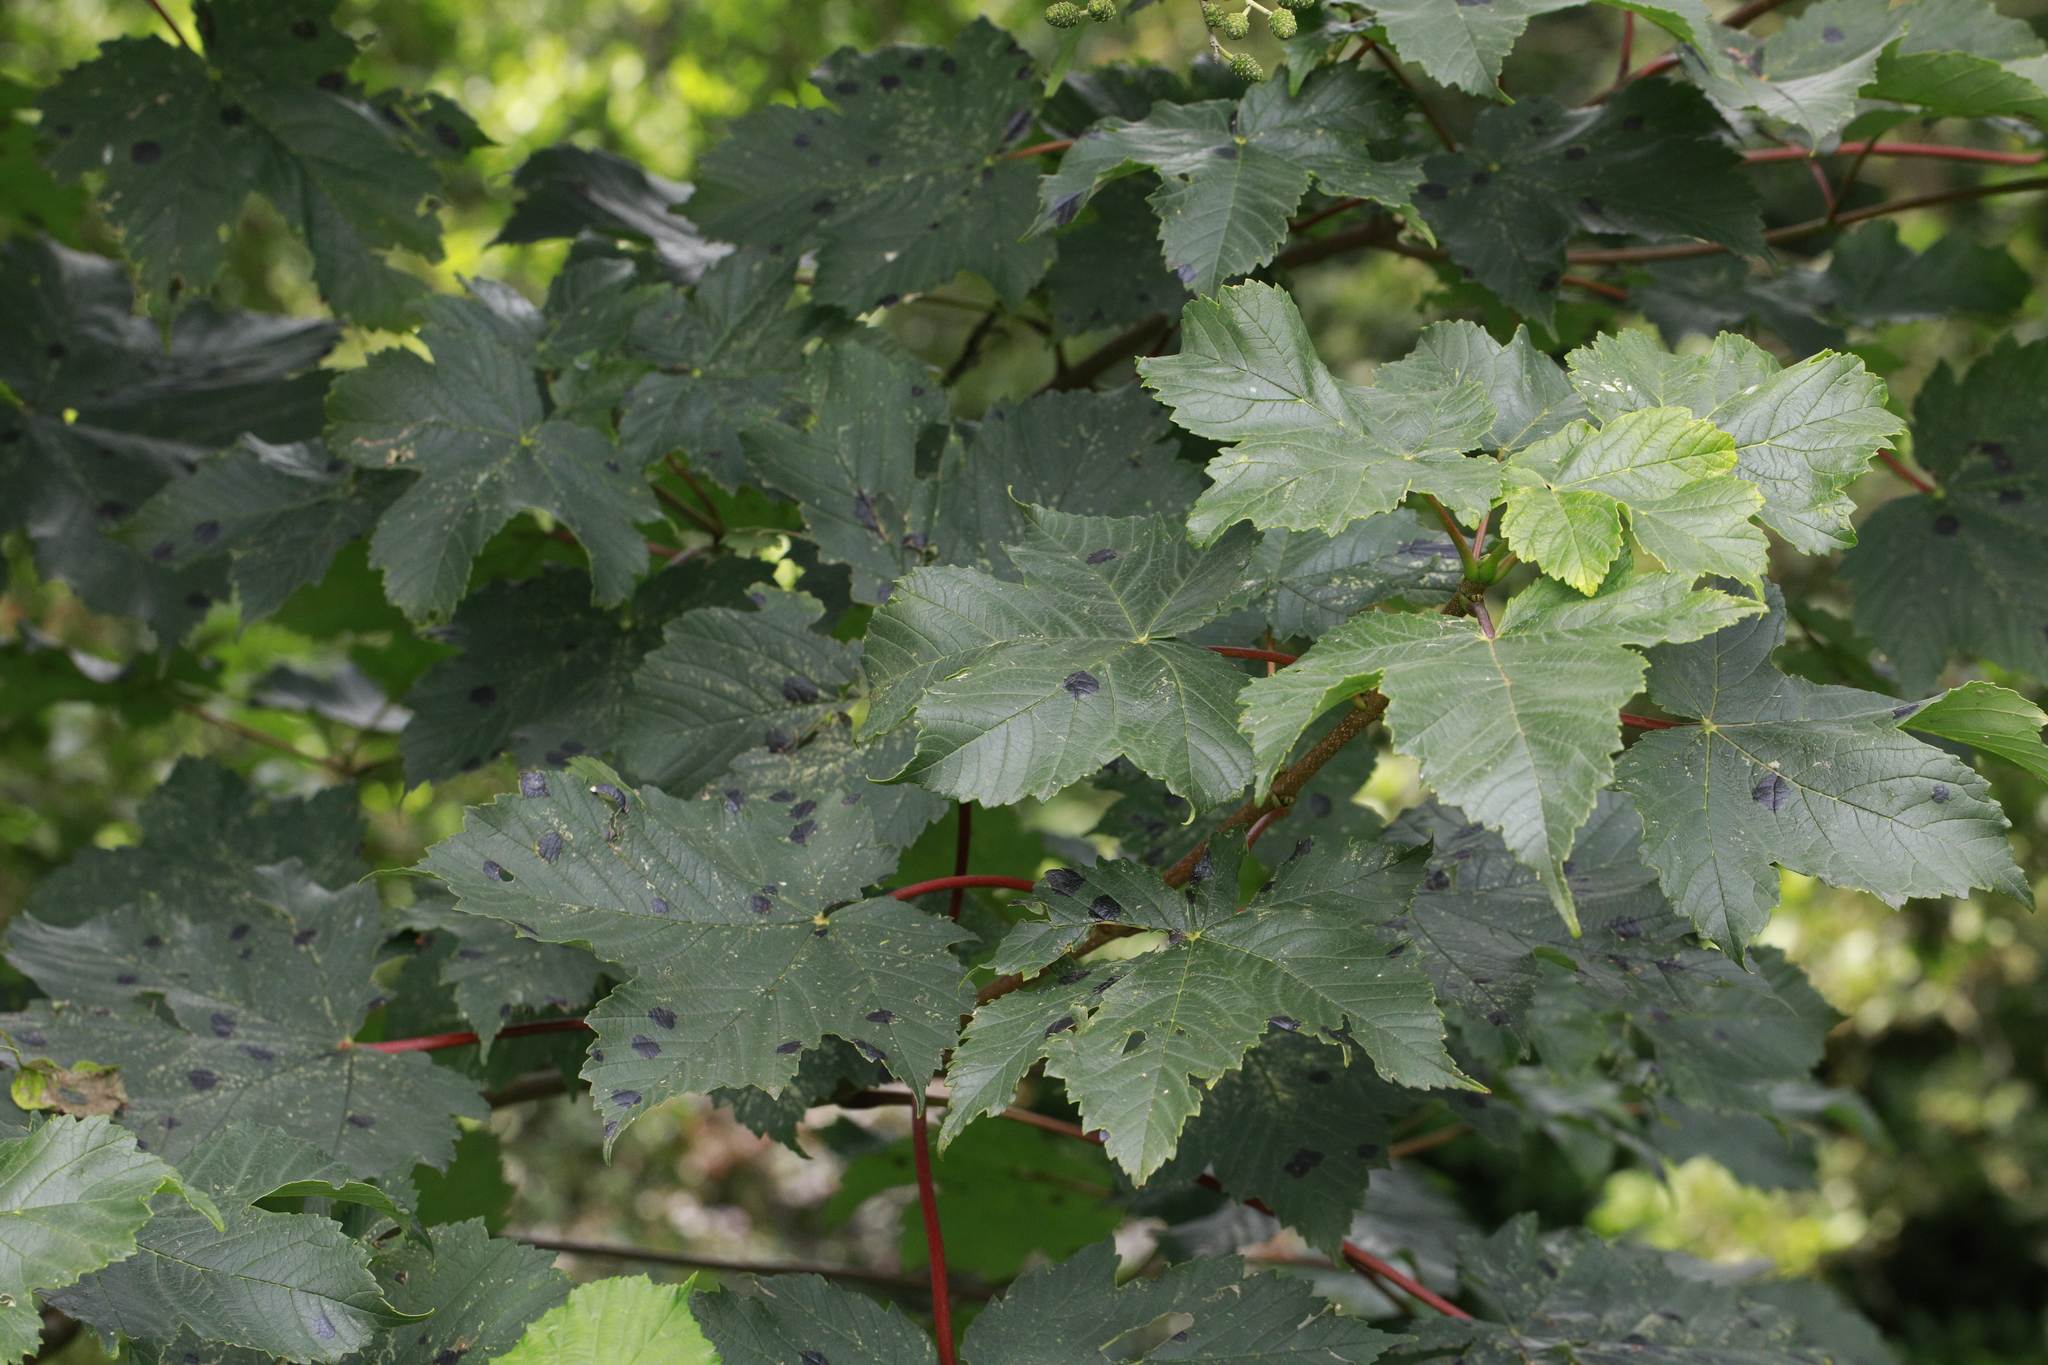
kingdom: Fungi
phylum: Ascomycota
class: Leotiomycetes
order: Rhytismatales
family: Rhytismataceae
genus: Rhytisma
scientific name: Rhytisma acerinum
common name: European tar spot
